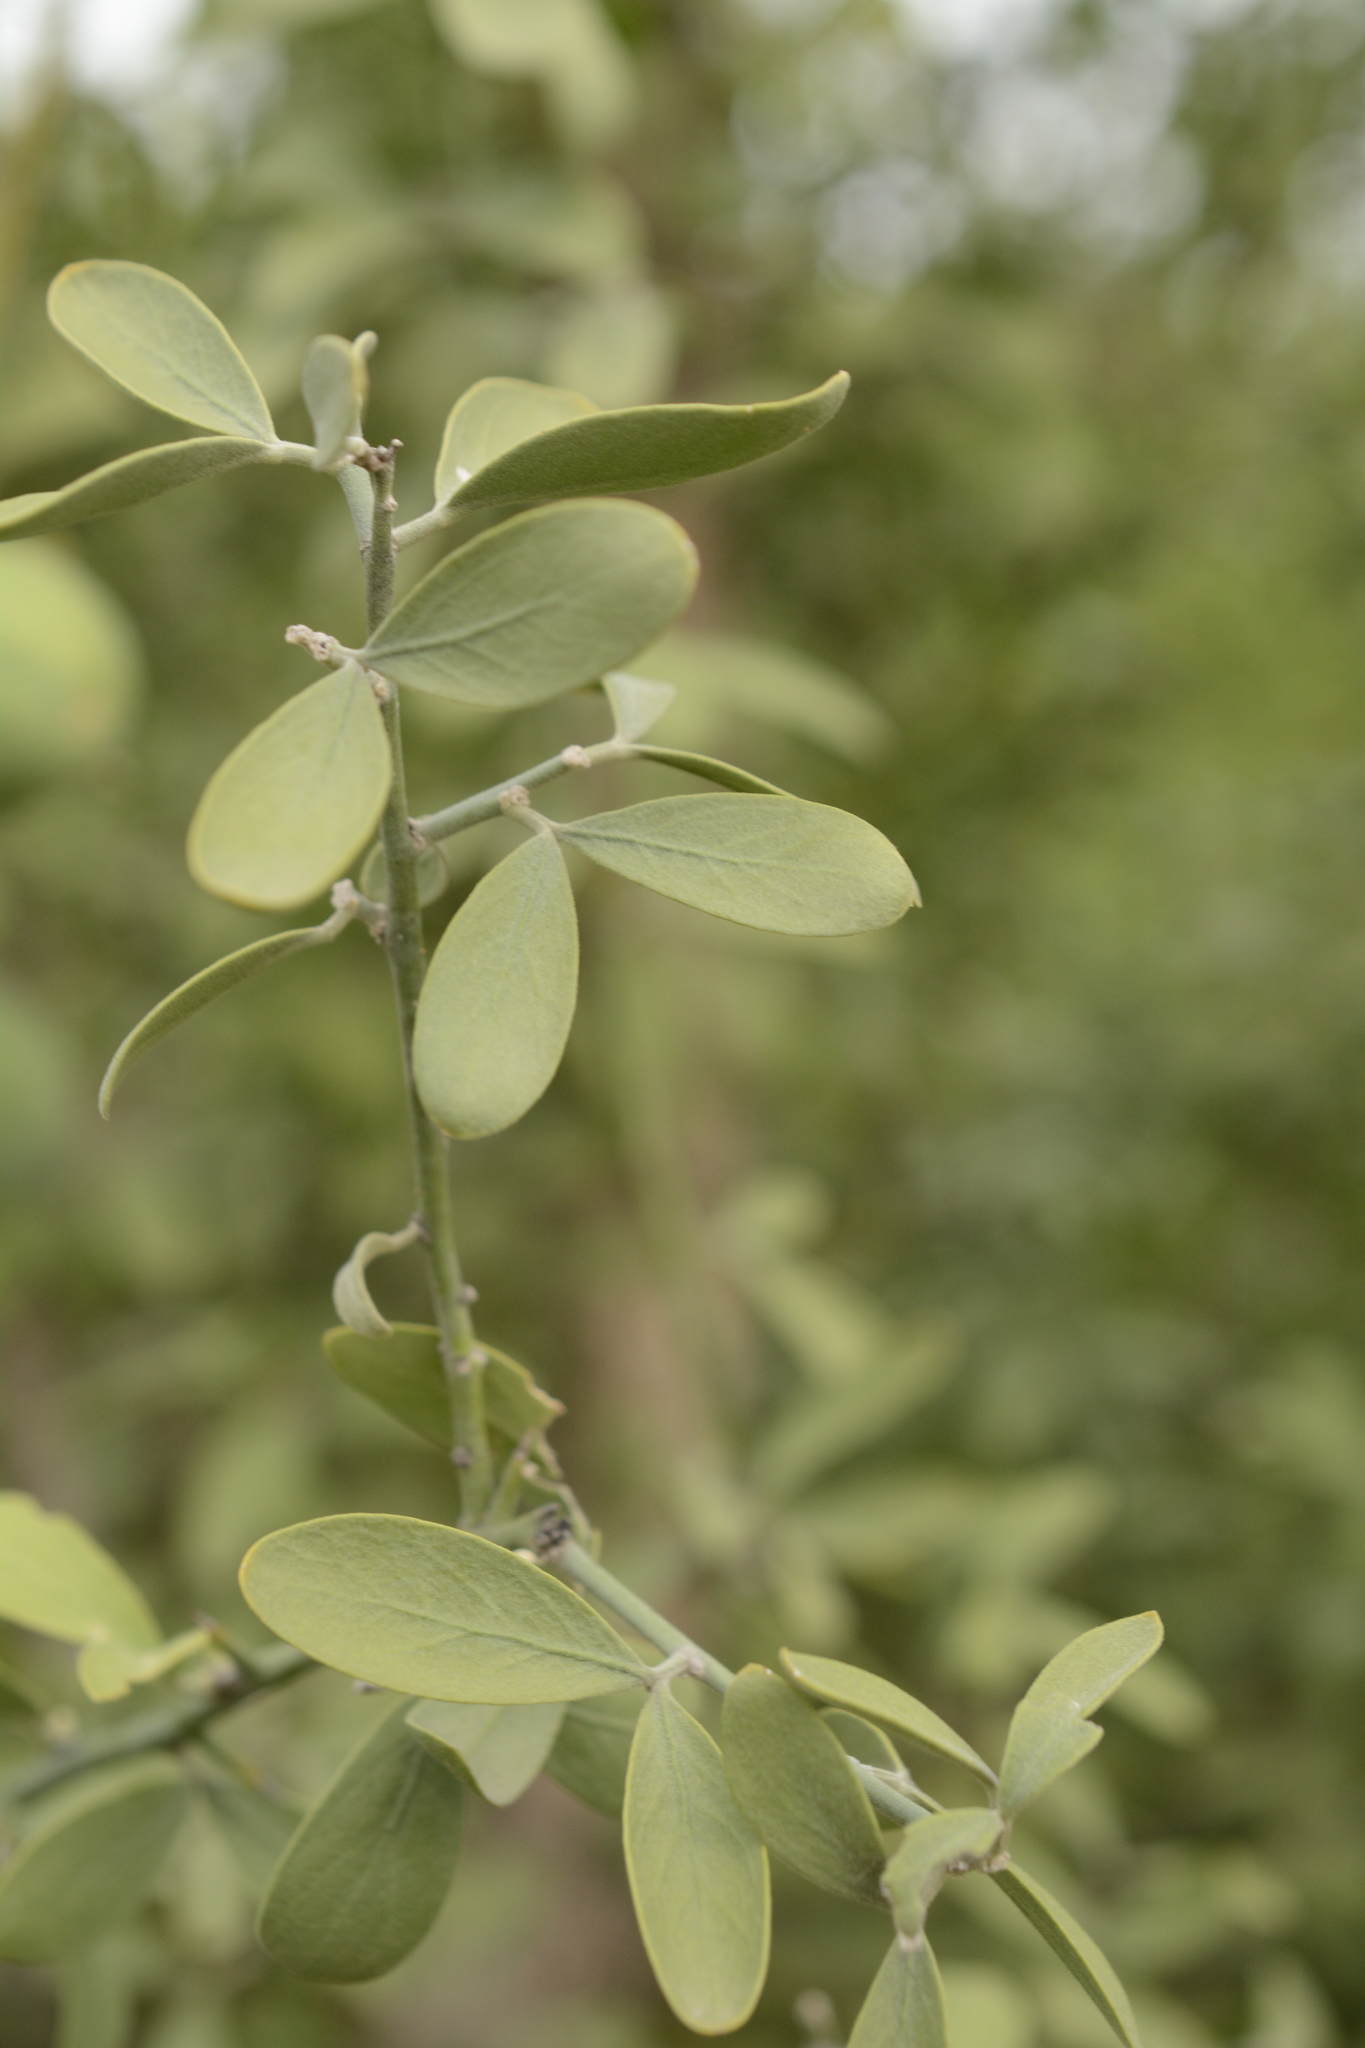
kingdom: Plantae
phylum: Tracheophyta
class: Magnoliopsida
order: Zygophyllales
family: Zygophyllaceae
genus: Balanites
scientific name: Balanites aegyptiaca
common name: Balanites
